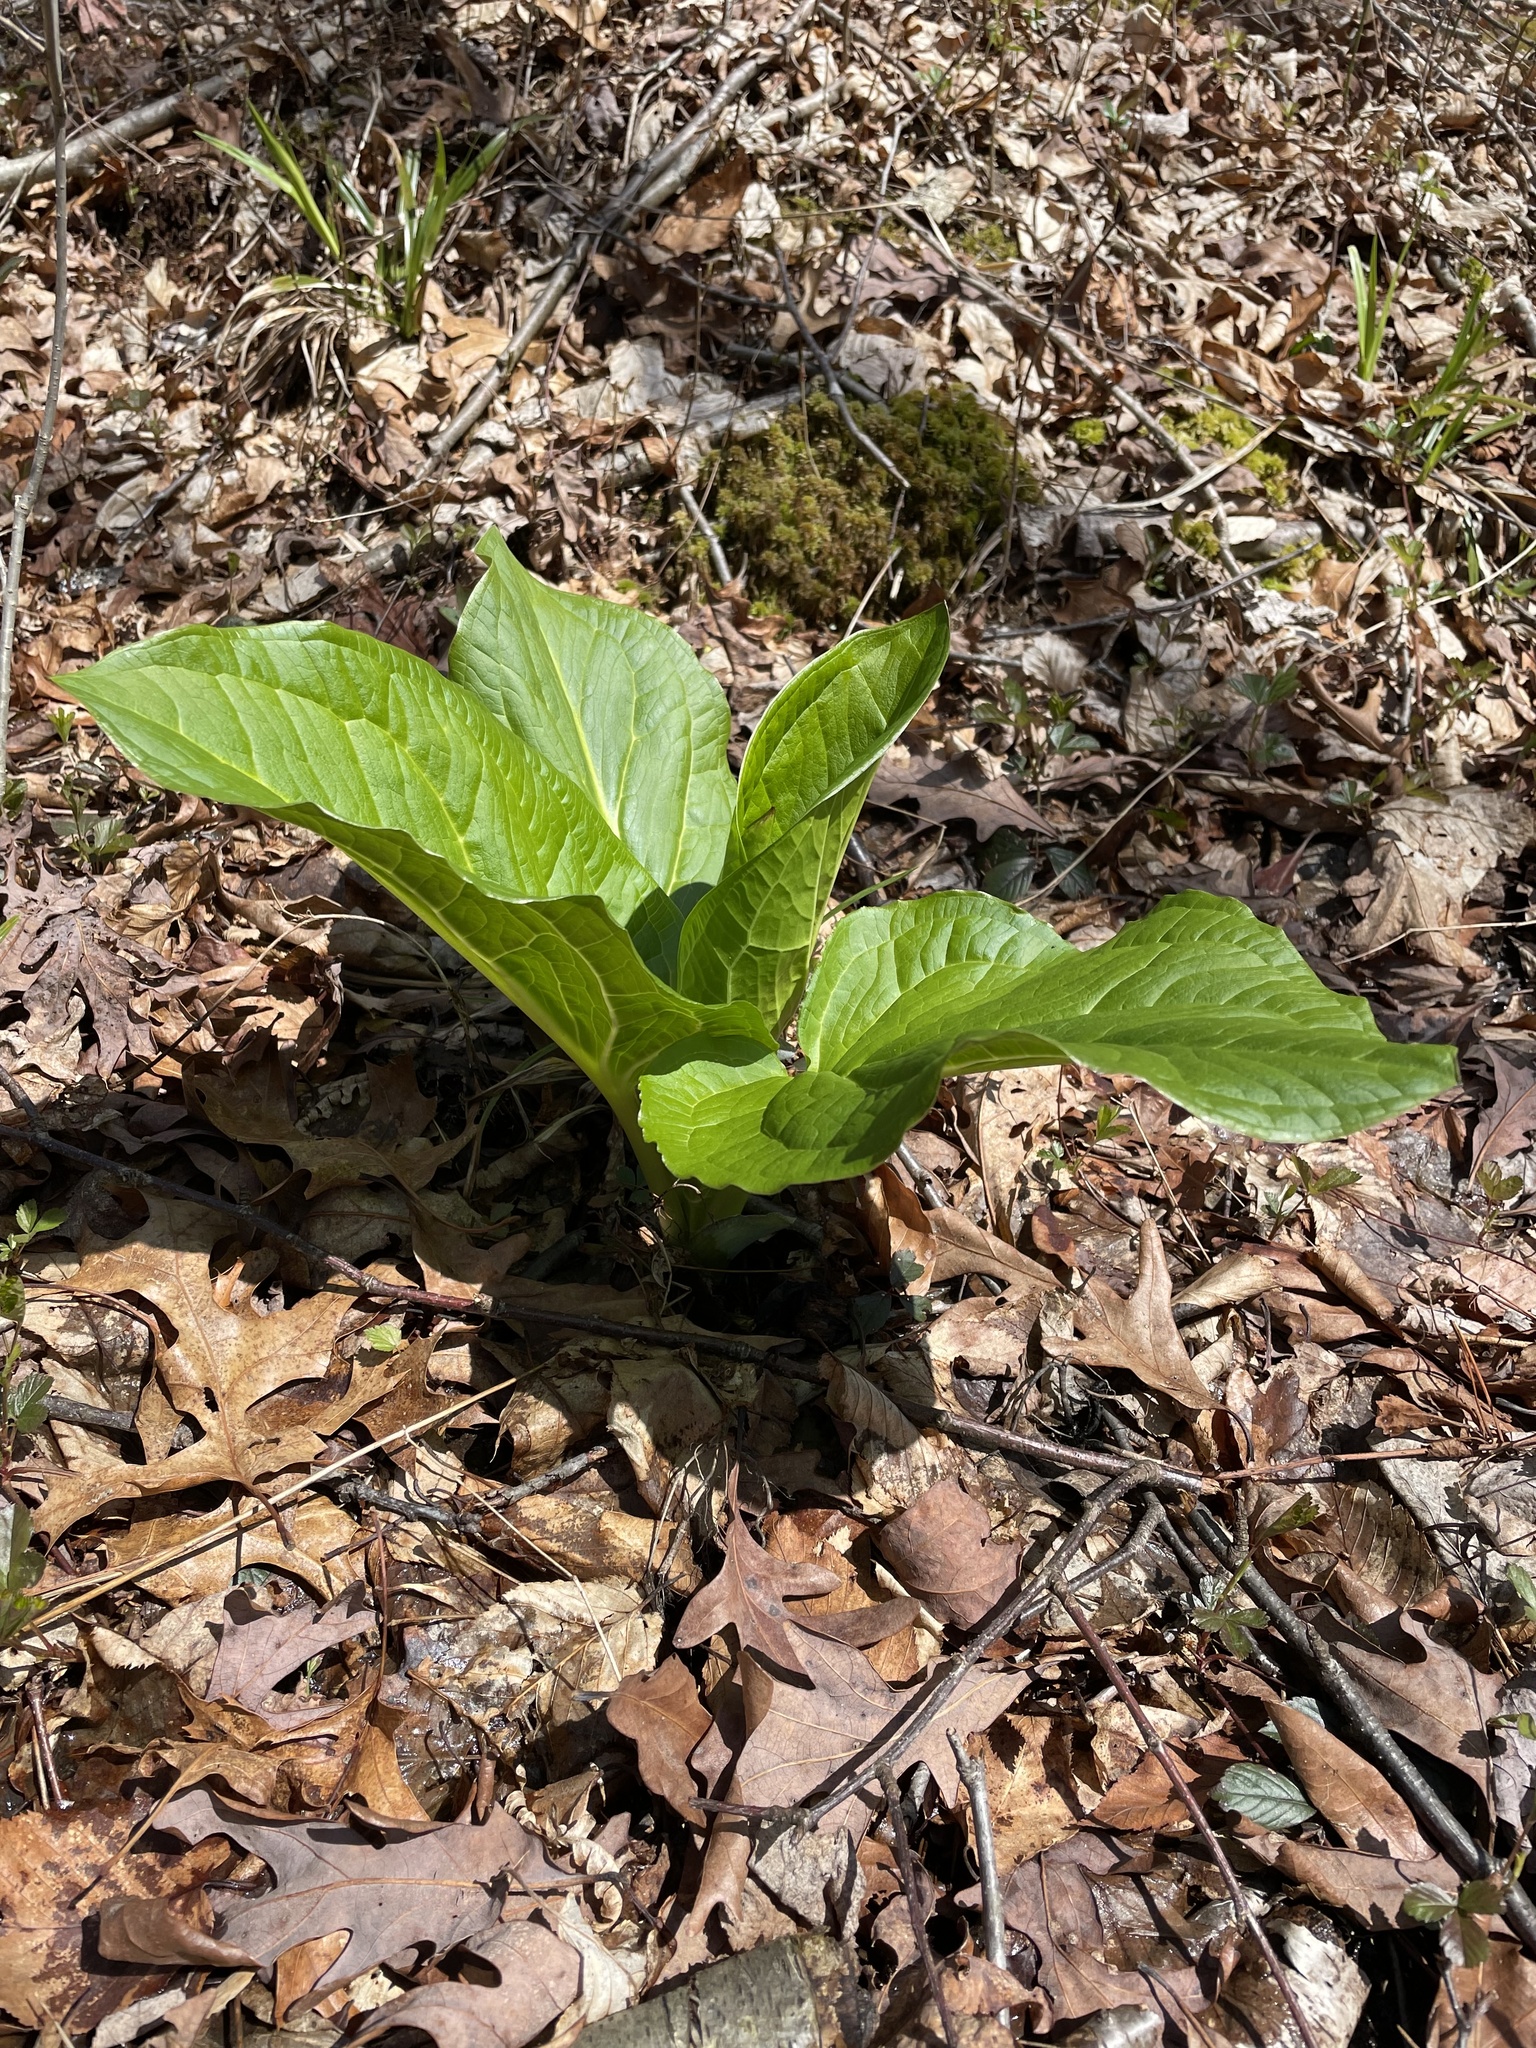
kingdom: Plantae
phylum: Tracheophyta
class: Liliopsida
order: Alismatales
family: Araceae
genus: Symplocarpus
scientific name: Symplocarpus foetidus
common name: Eastern skunk cabbage
